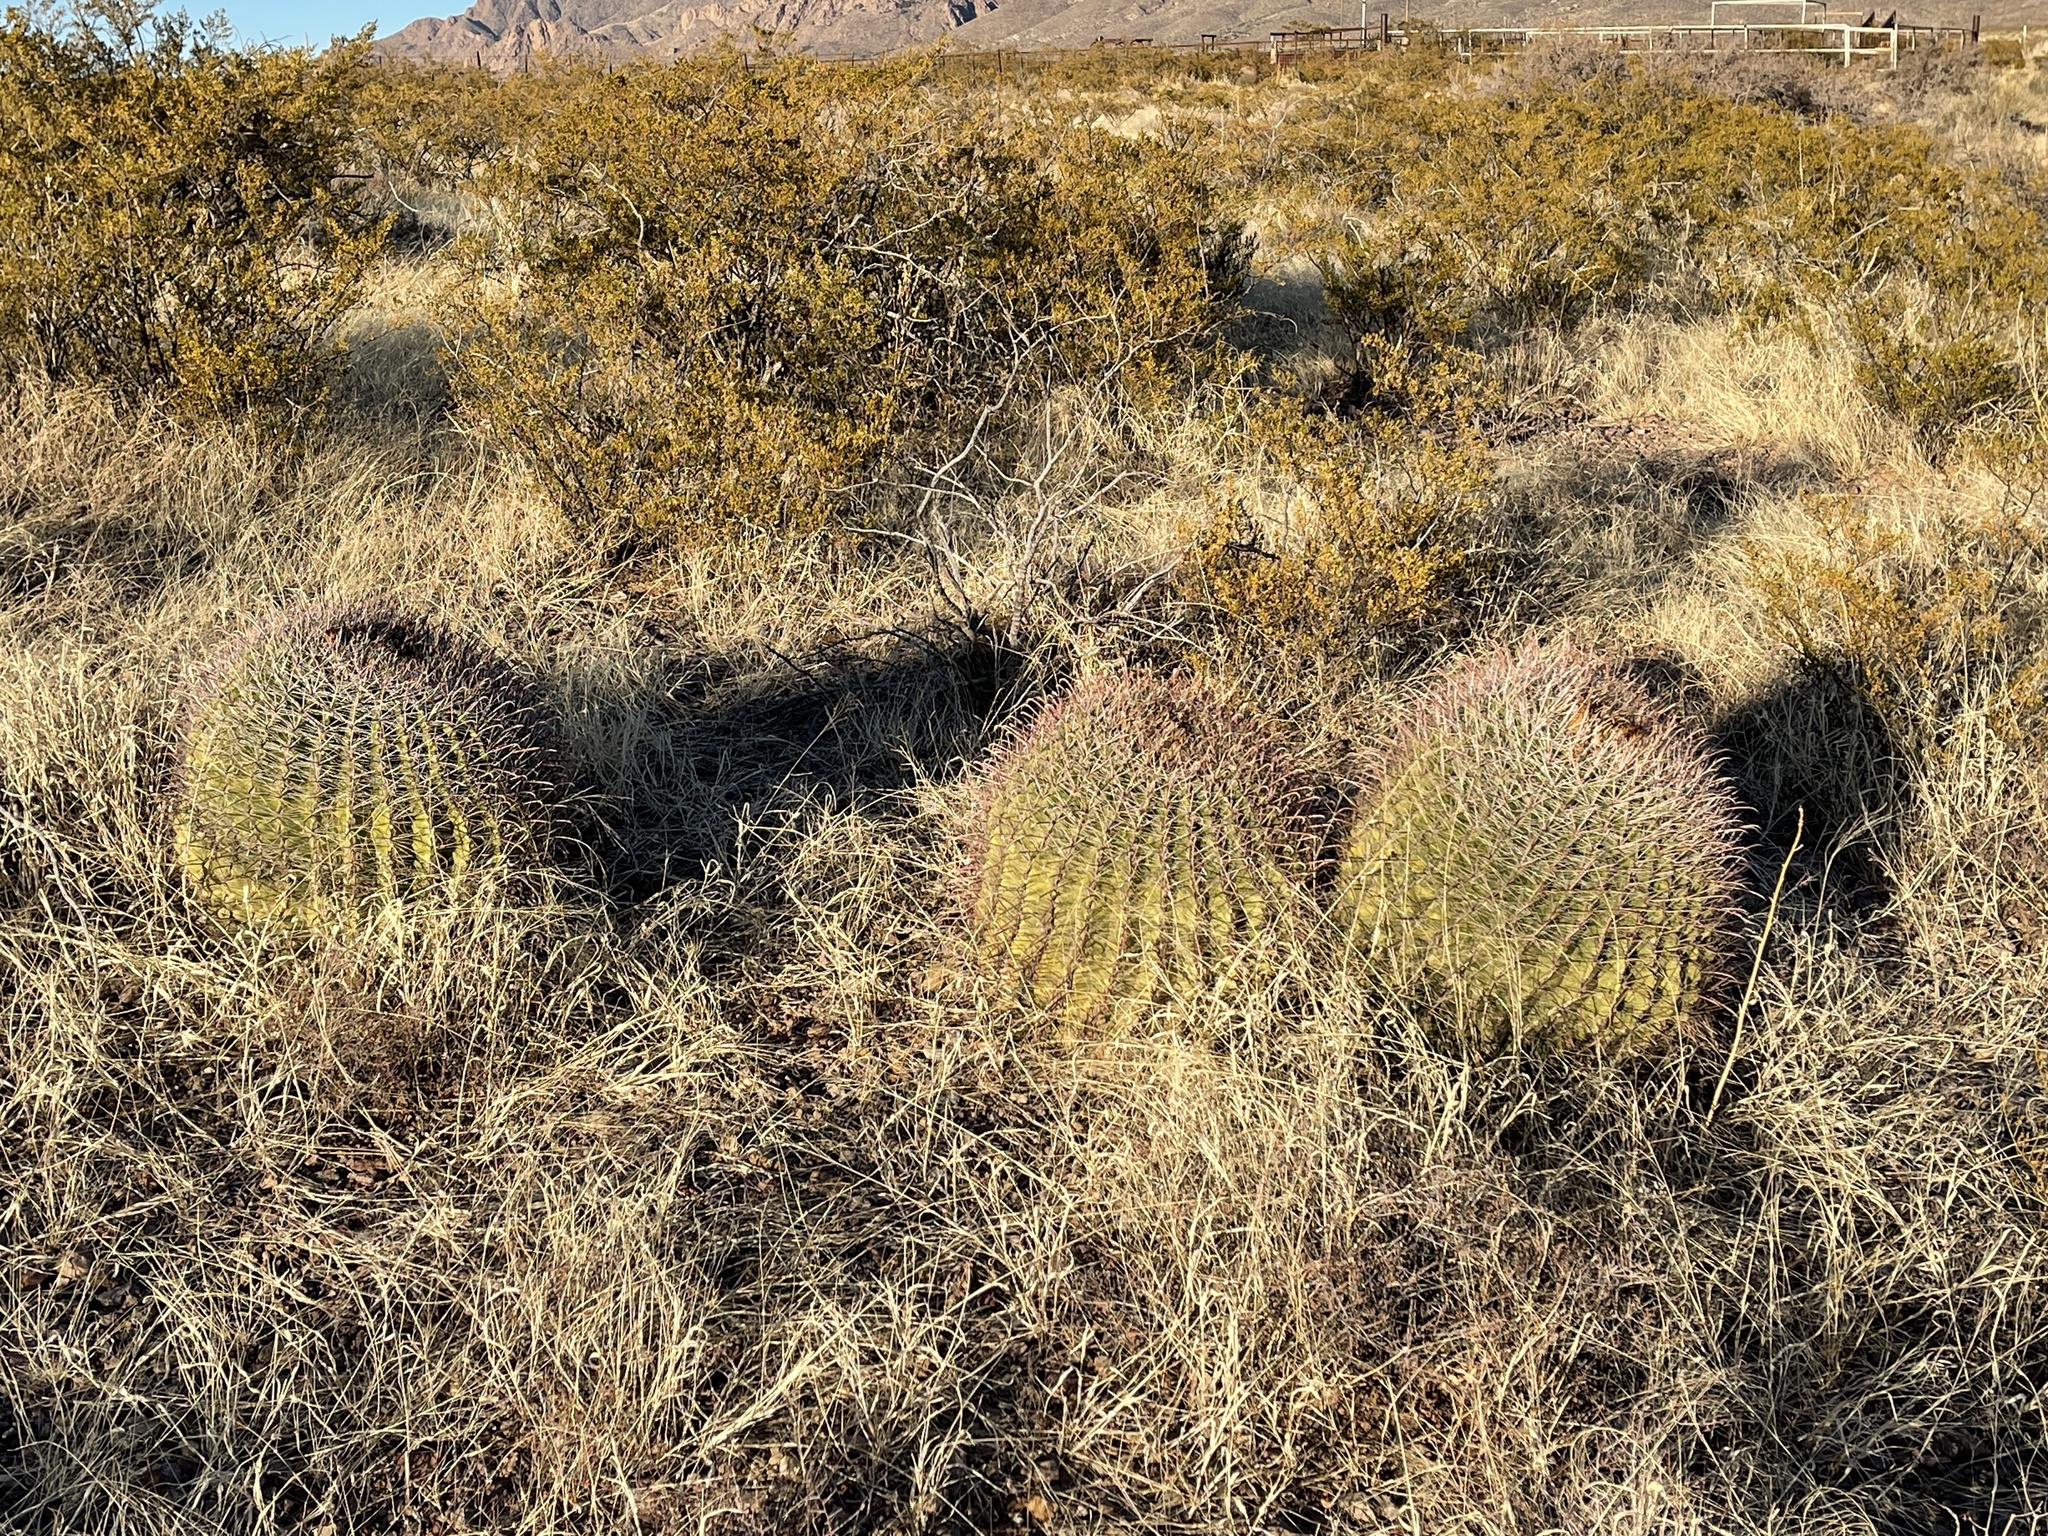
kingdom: Plantae
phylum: Tracheophyta
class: Magnoliopsida
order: Caryophyllales
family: Cactaceae
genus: Ferocactus
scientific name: Ferocactus wislizeni
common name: Candy barrel cactus
